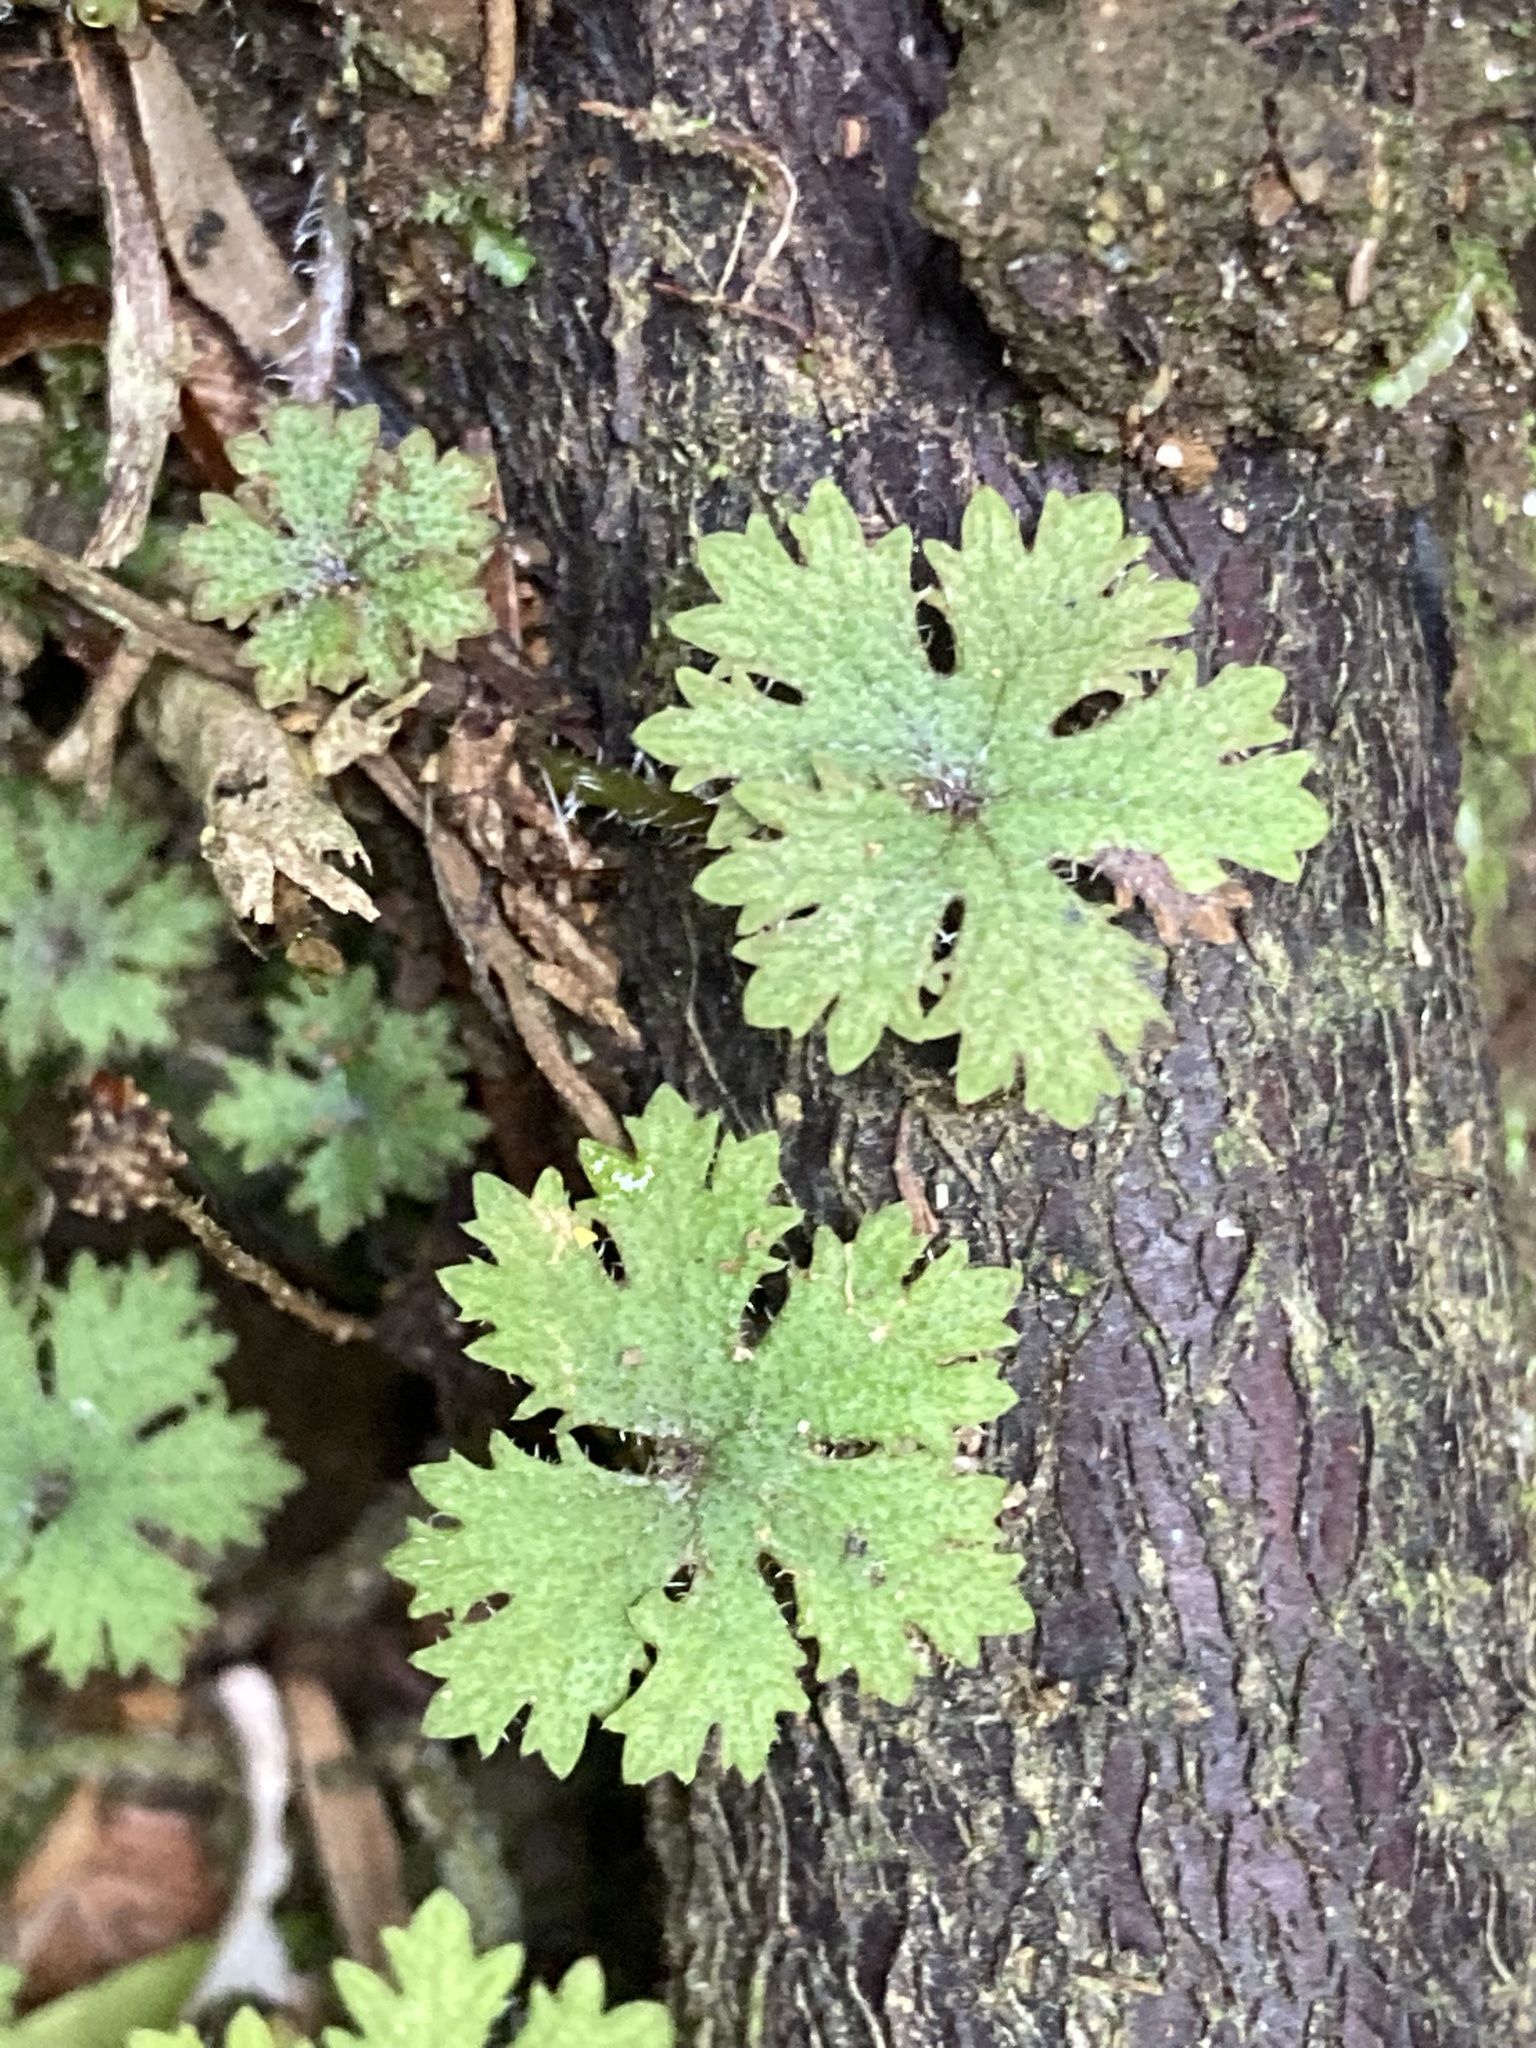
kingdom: Plantae
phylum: Tracheophyta
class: Magnoliopsida
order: Apiales
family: Araliaceae
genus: Hydrocotyle
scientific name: Hydrocotyle dissecta
